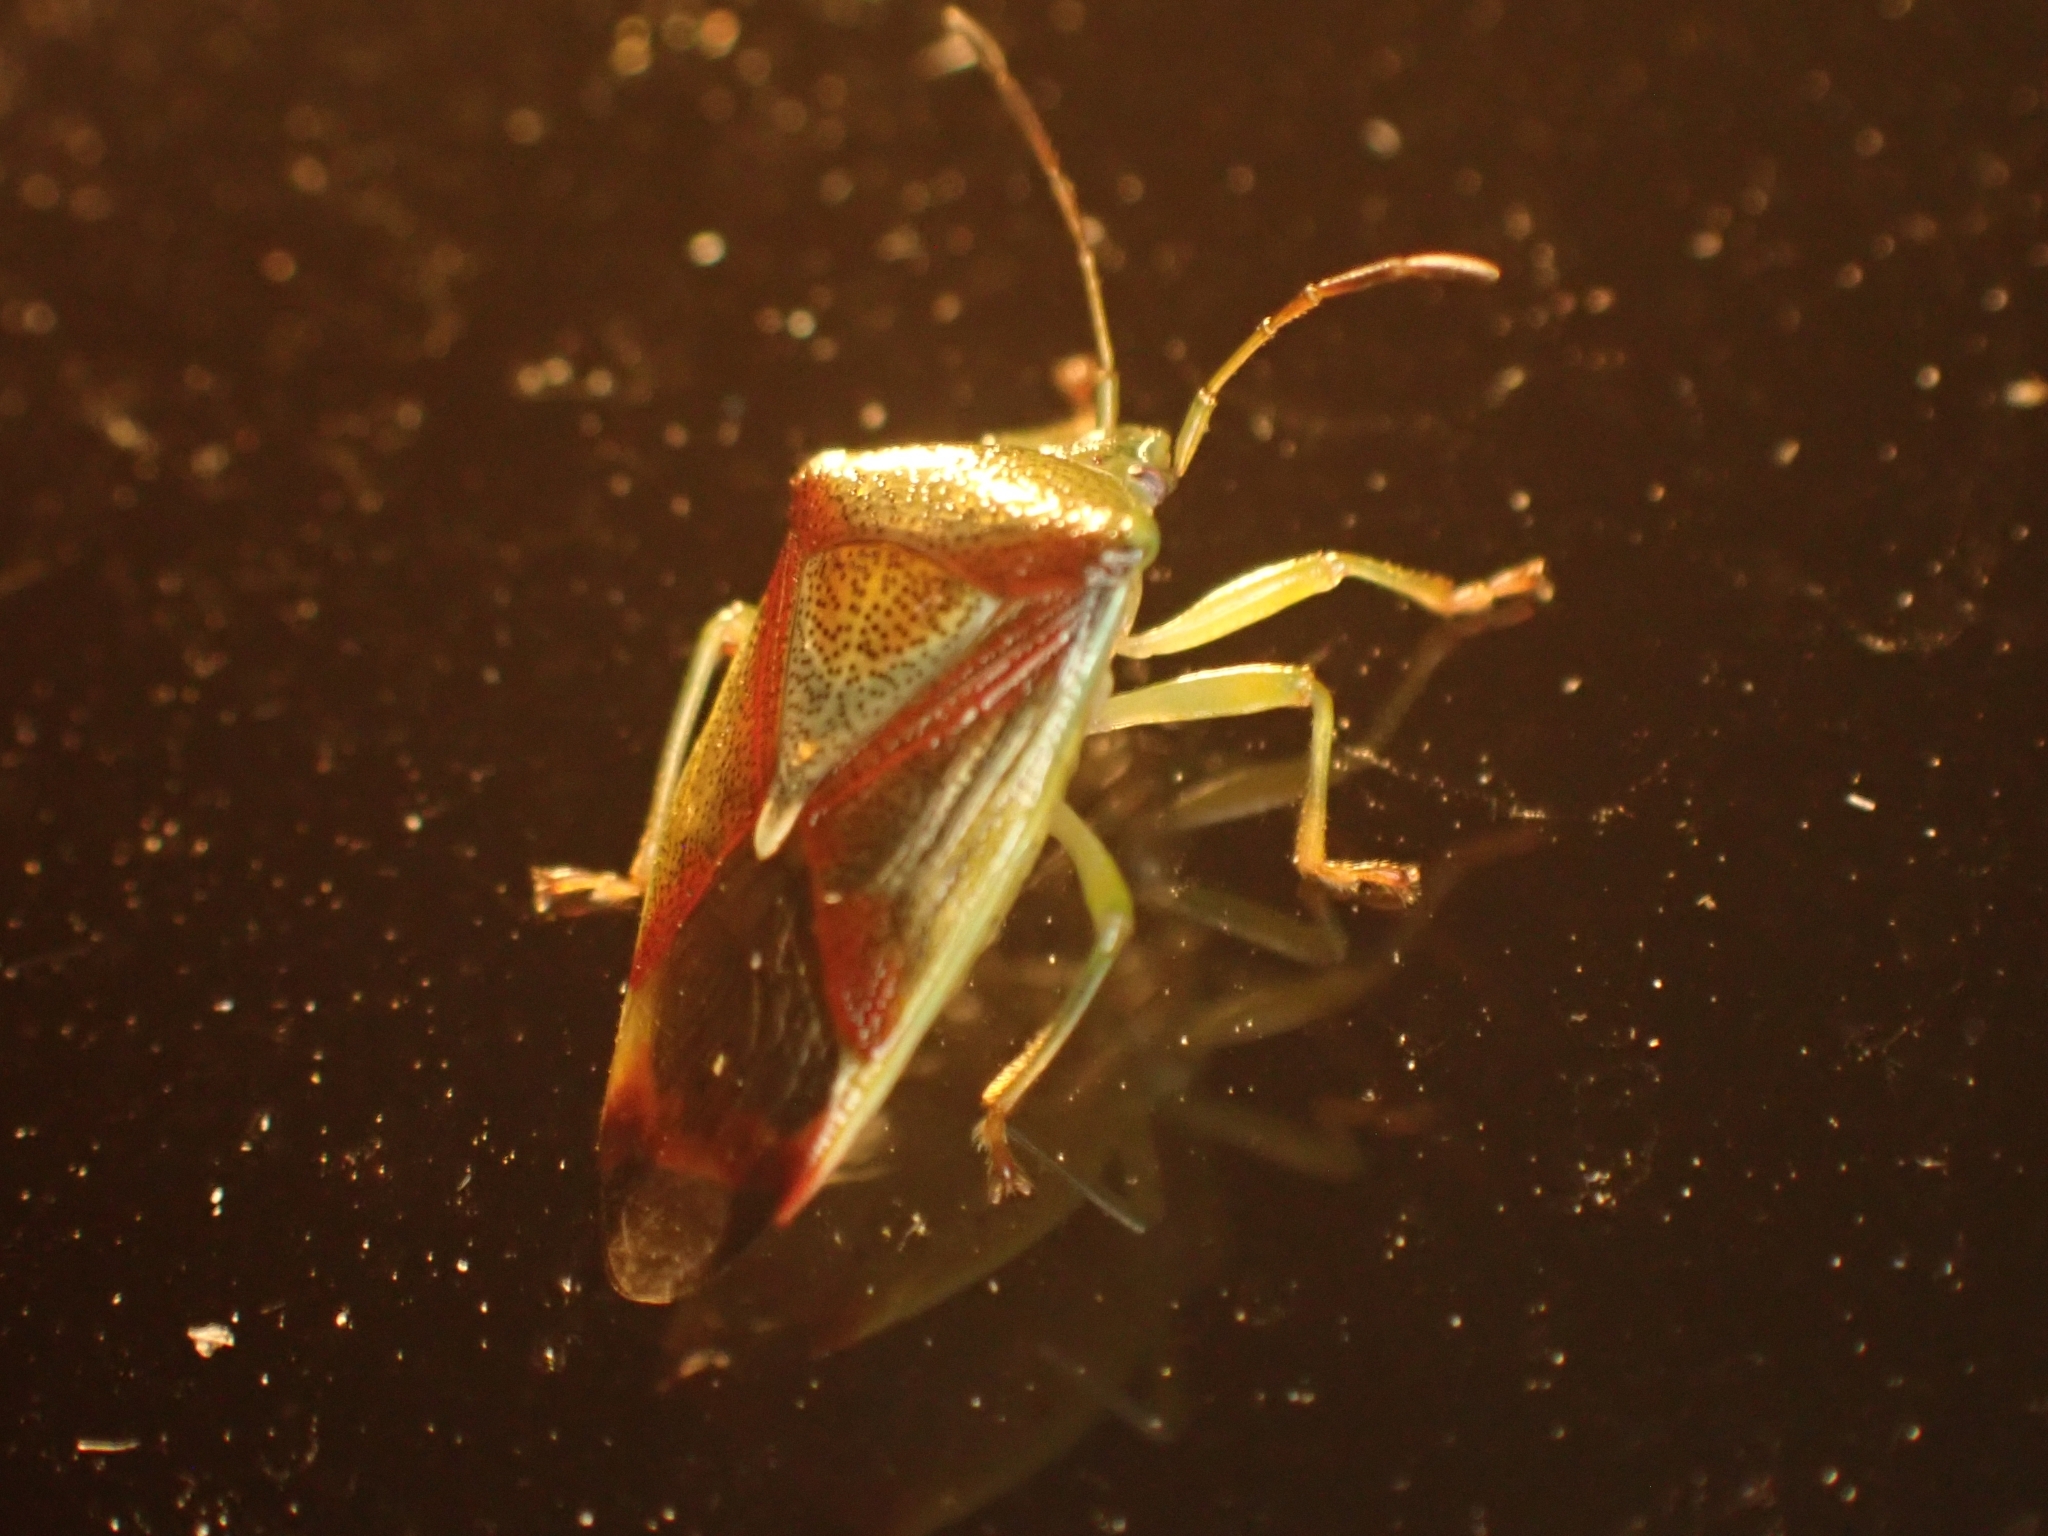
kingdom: Animalia
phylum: Arthropoda
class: Insecta
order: Hemiptera
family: Acanthosomatidae
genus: Elasmostethus
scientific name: Elasmostethus interstinctus
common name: Birch shieldbug
